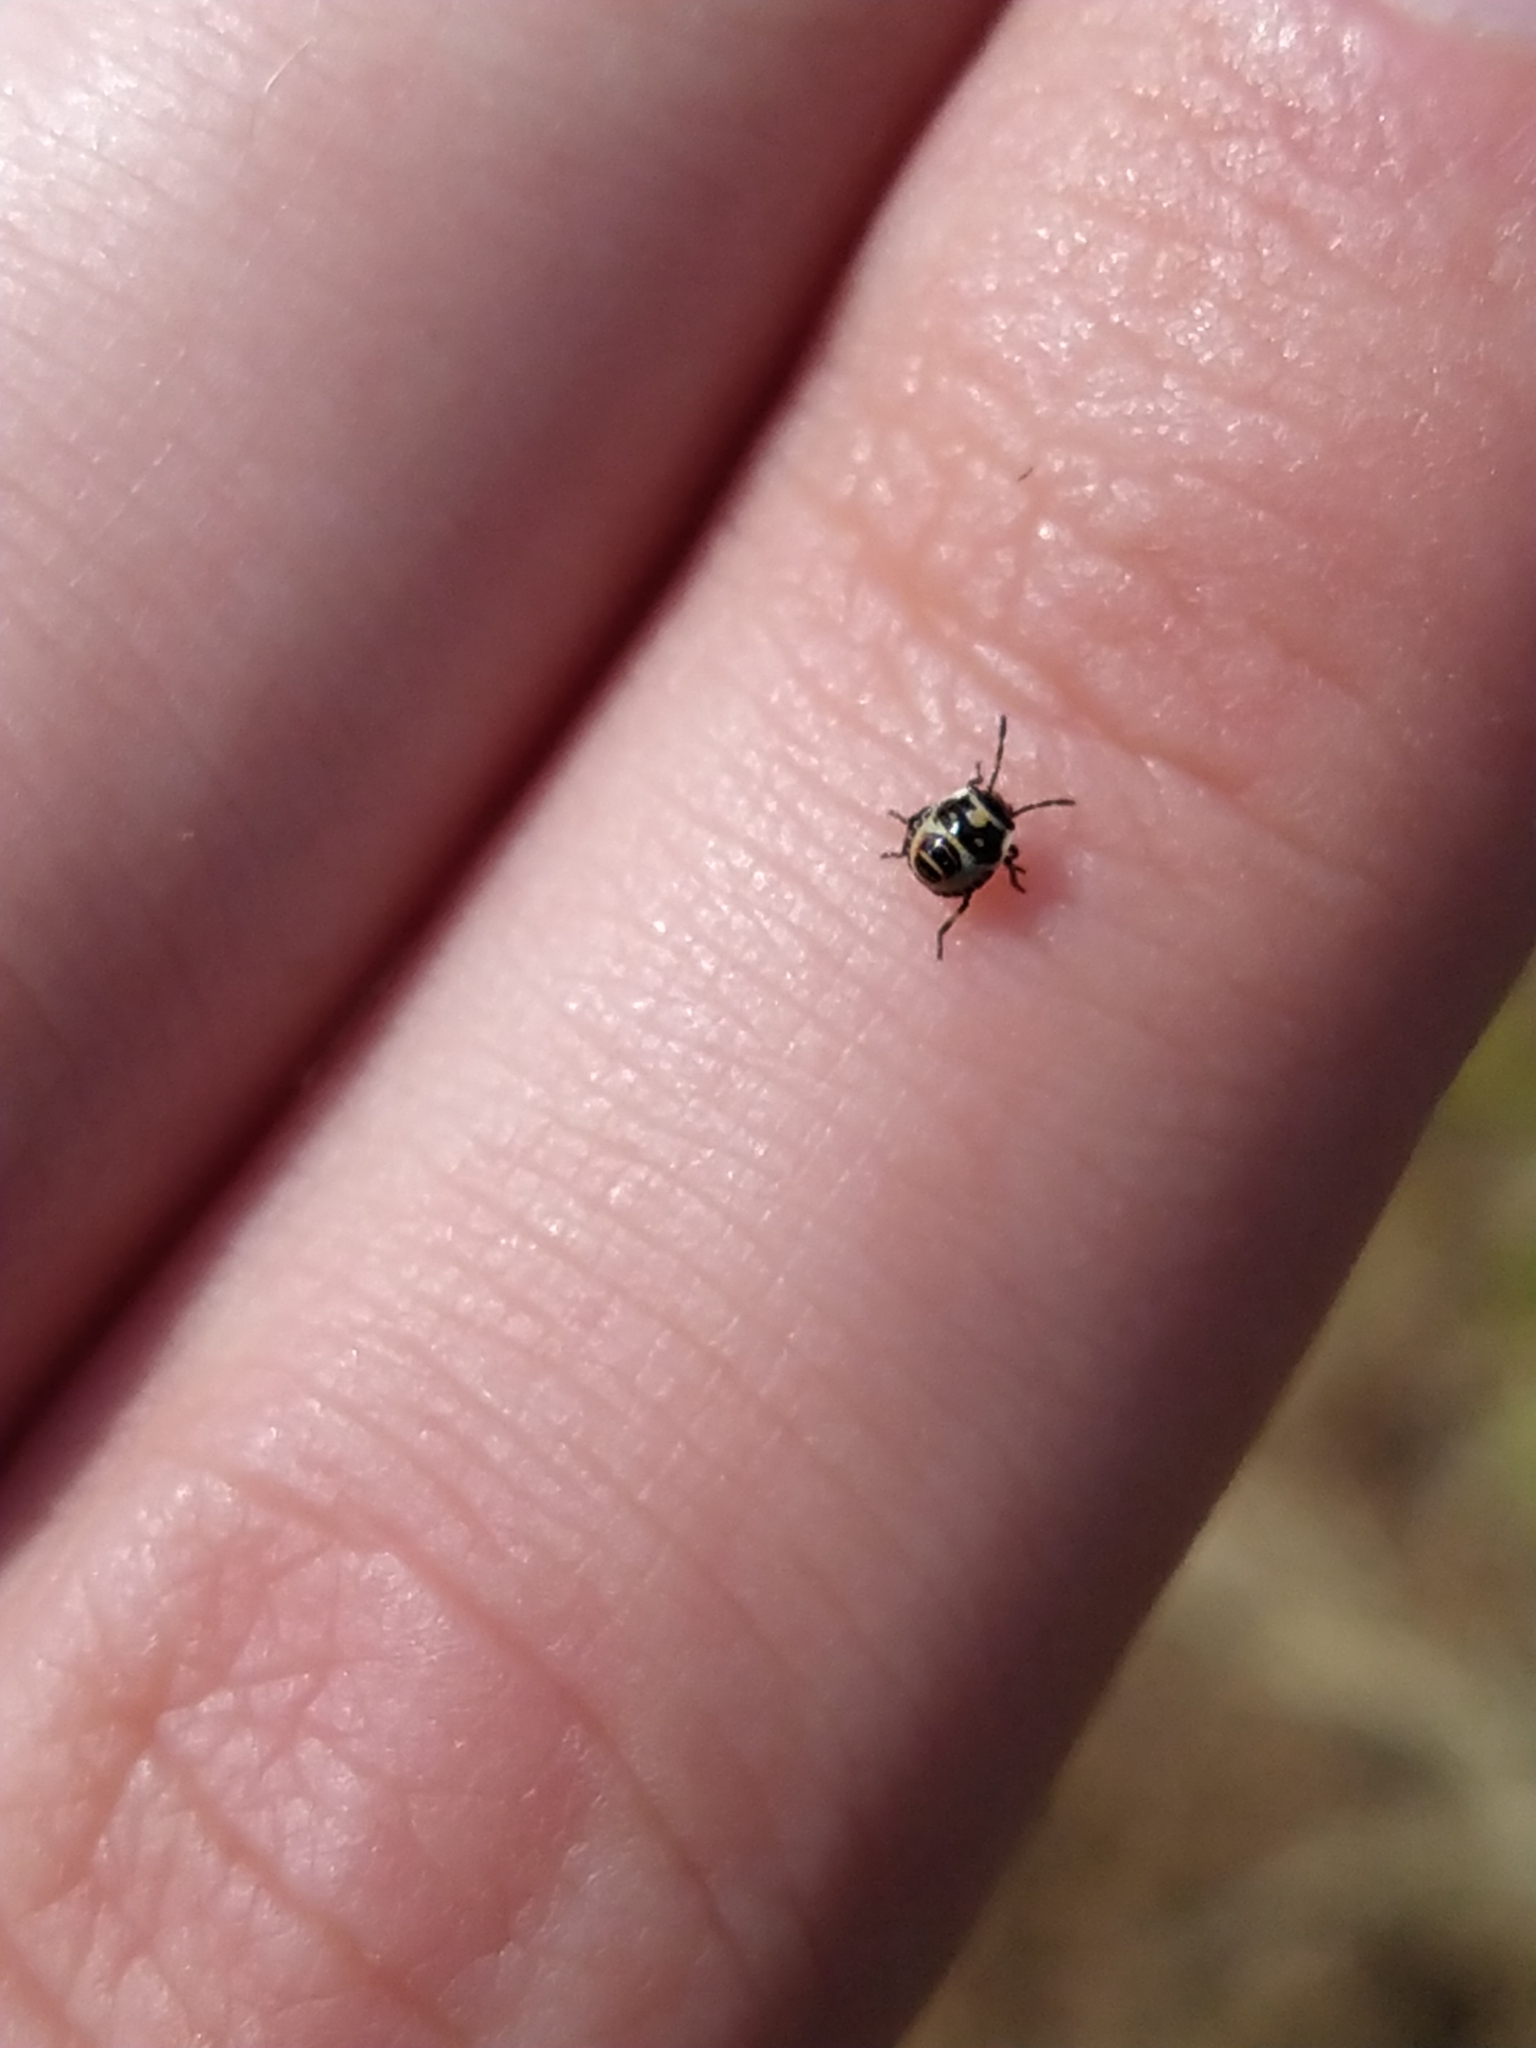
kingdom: Animalia
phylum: Arthropoda
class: Insecta
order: Hemiptera
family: Pentatomidae
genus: Eurydema
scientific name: Eurydema oleracea
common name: Cabbage bug
